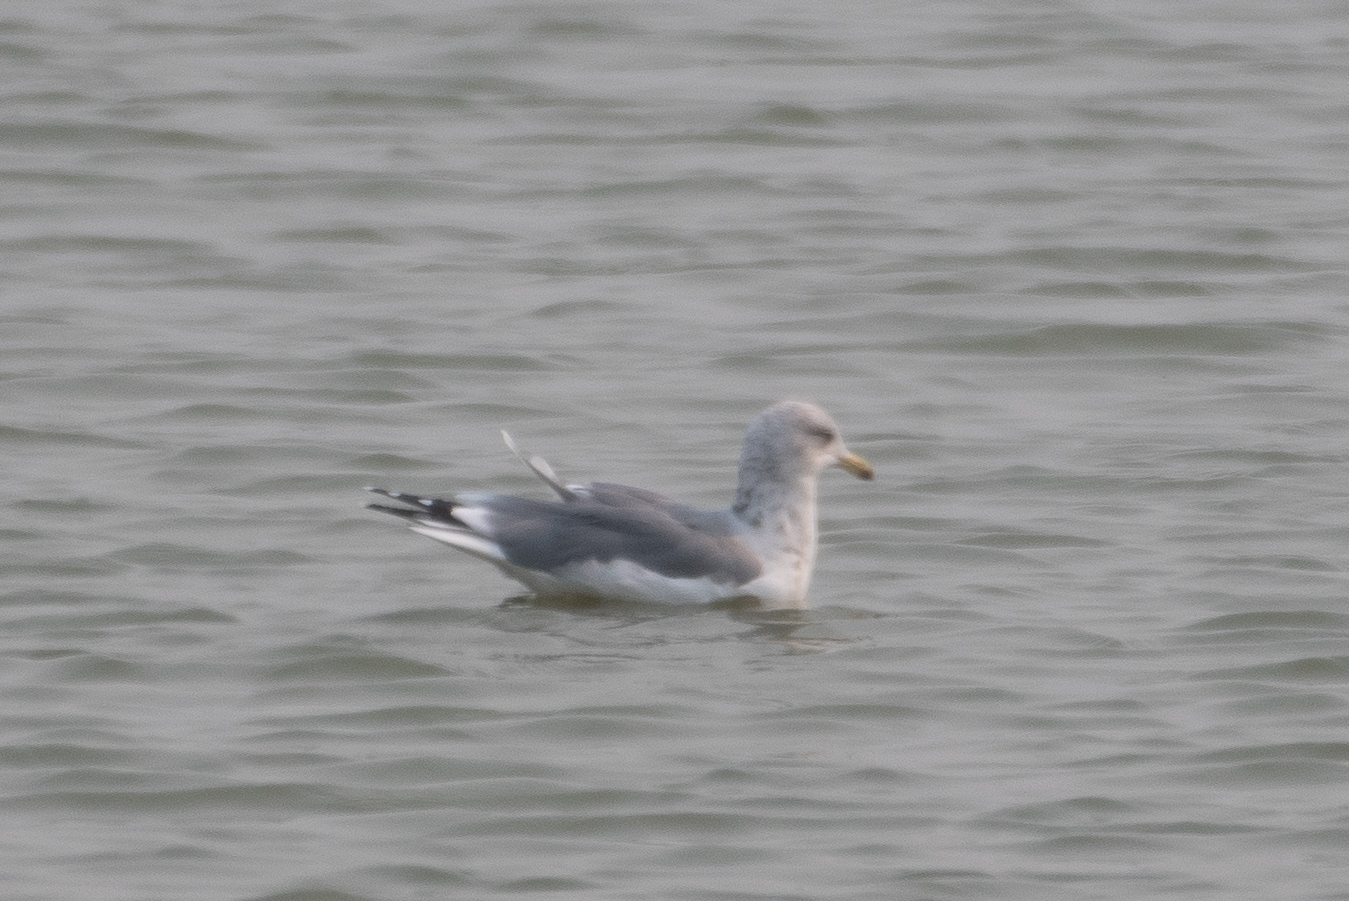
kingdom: Animalia
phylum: Chordata
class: Aves
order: Charadriiformes
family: Laridae
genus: Larus
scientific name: Larus californicus
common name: California gull
